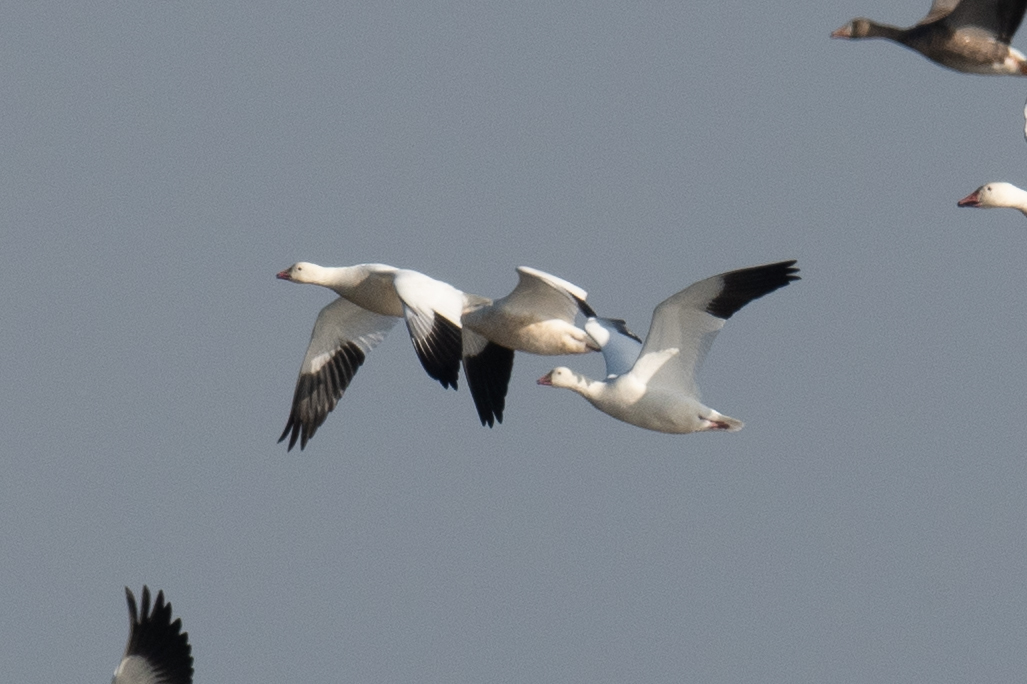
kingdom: Animalia
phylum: Chordata
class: Aves
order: Anseriformes
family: Anatidae
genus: Anser
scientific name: Anser rossii
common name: Ross's goose
